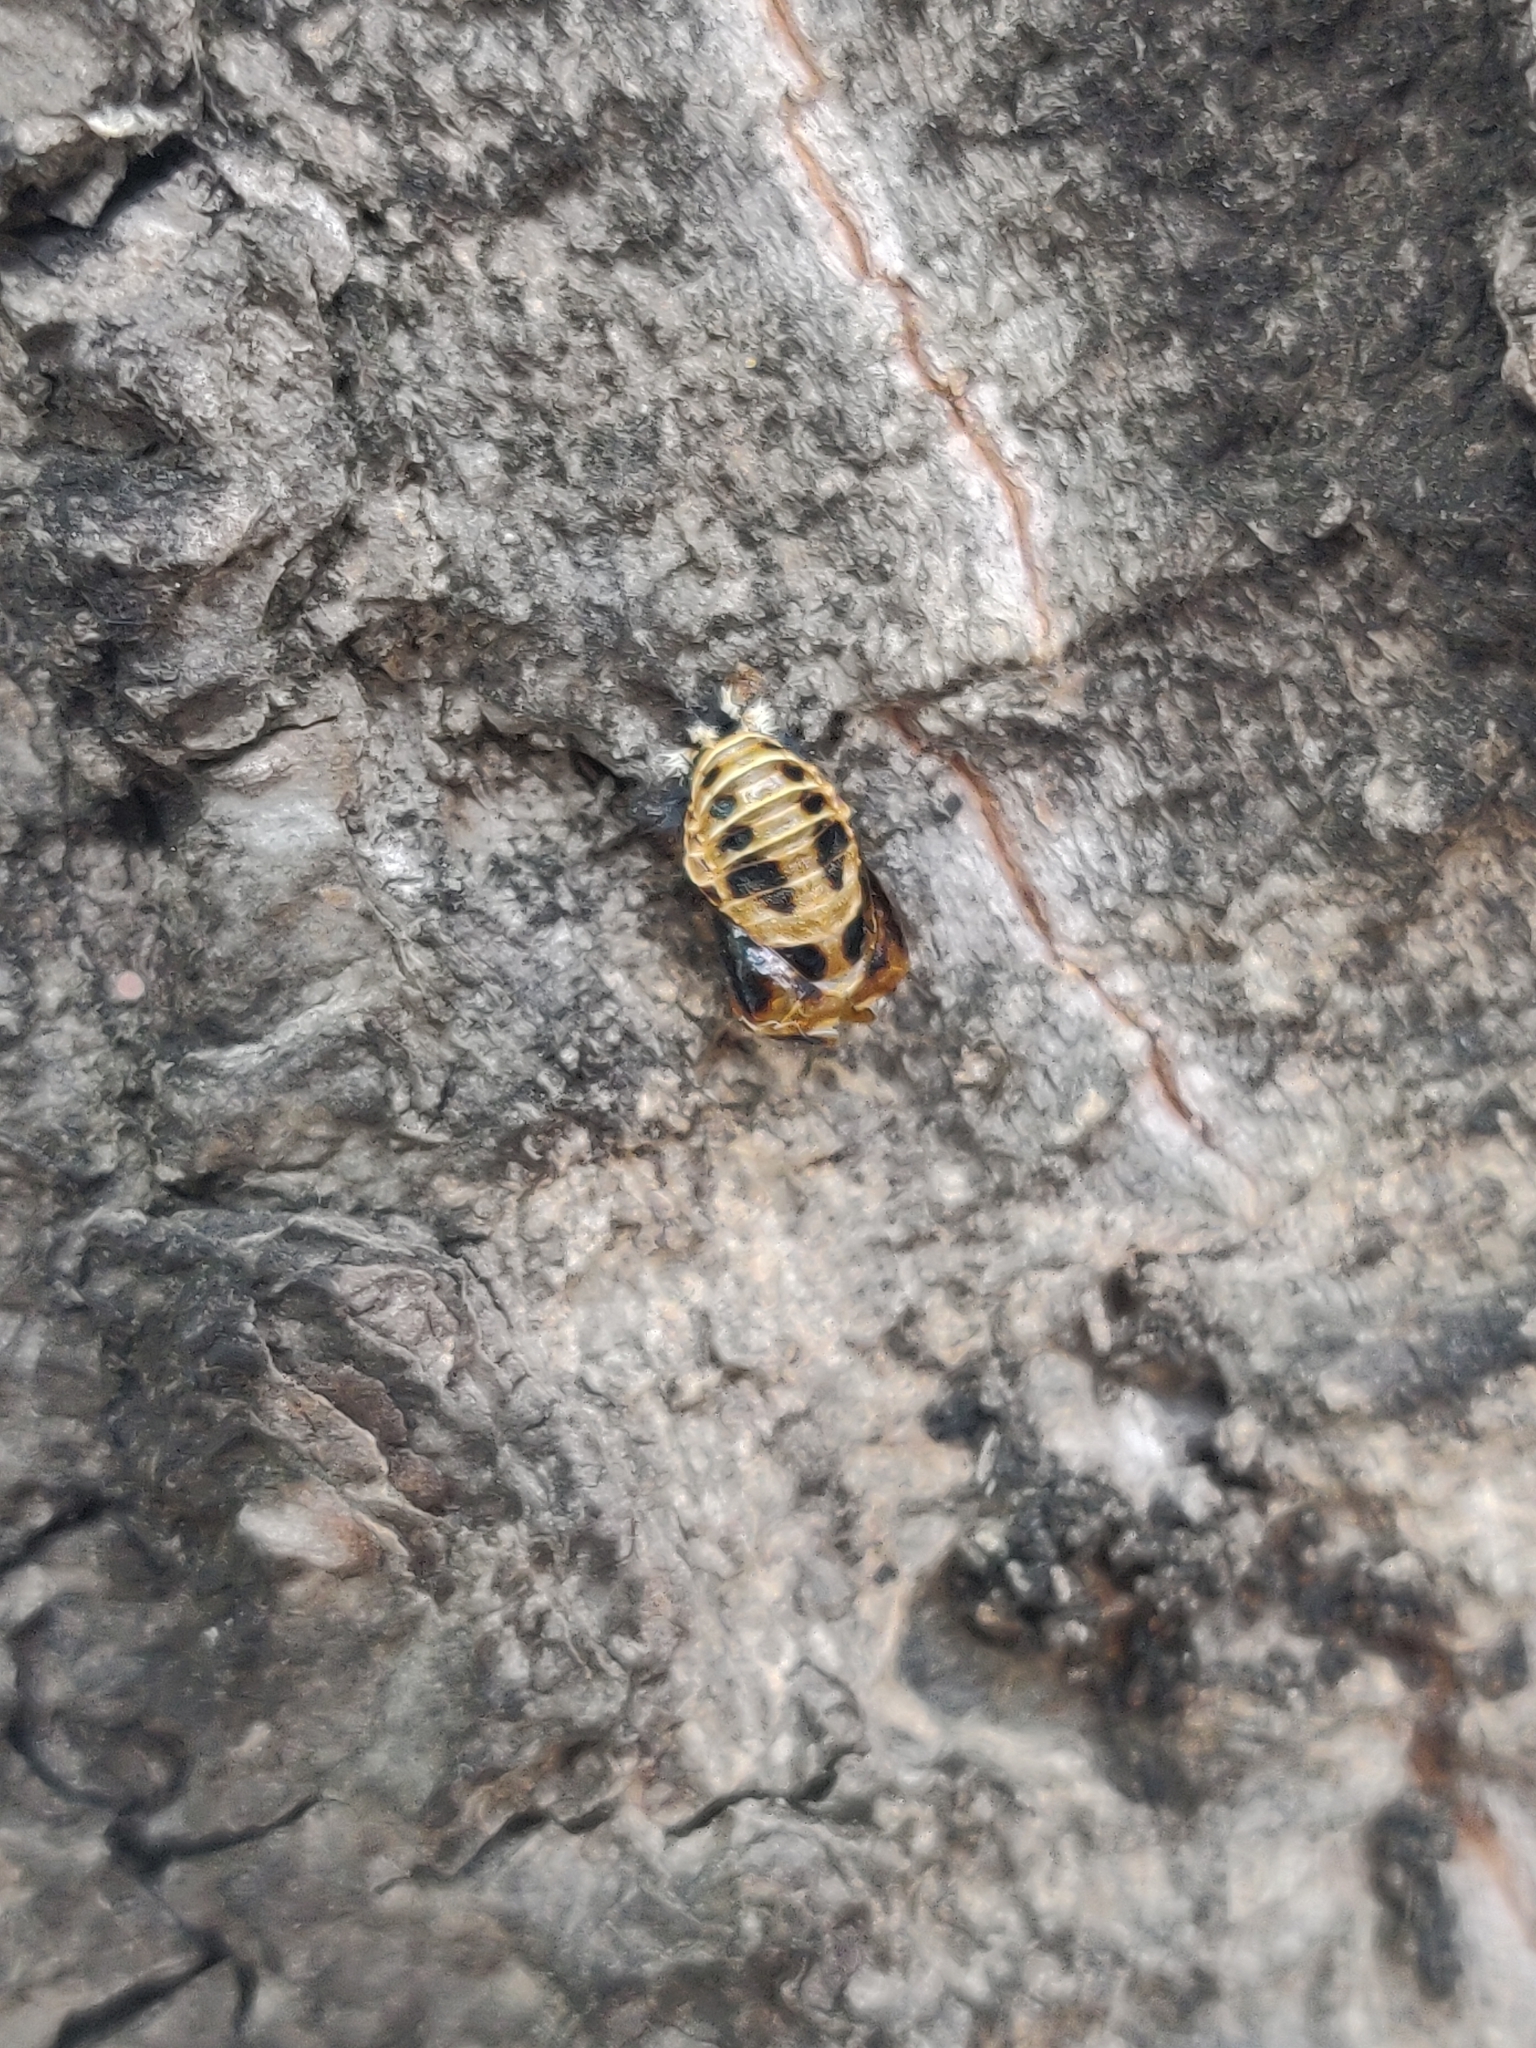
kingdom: Animalia
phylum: Arthropoda
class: Insecta
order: Coleoptera
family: Coccinellidae
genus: Harmonia
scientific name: Harmonia axyridis
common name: Harlequin ladybird
